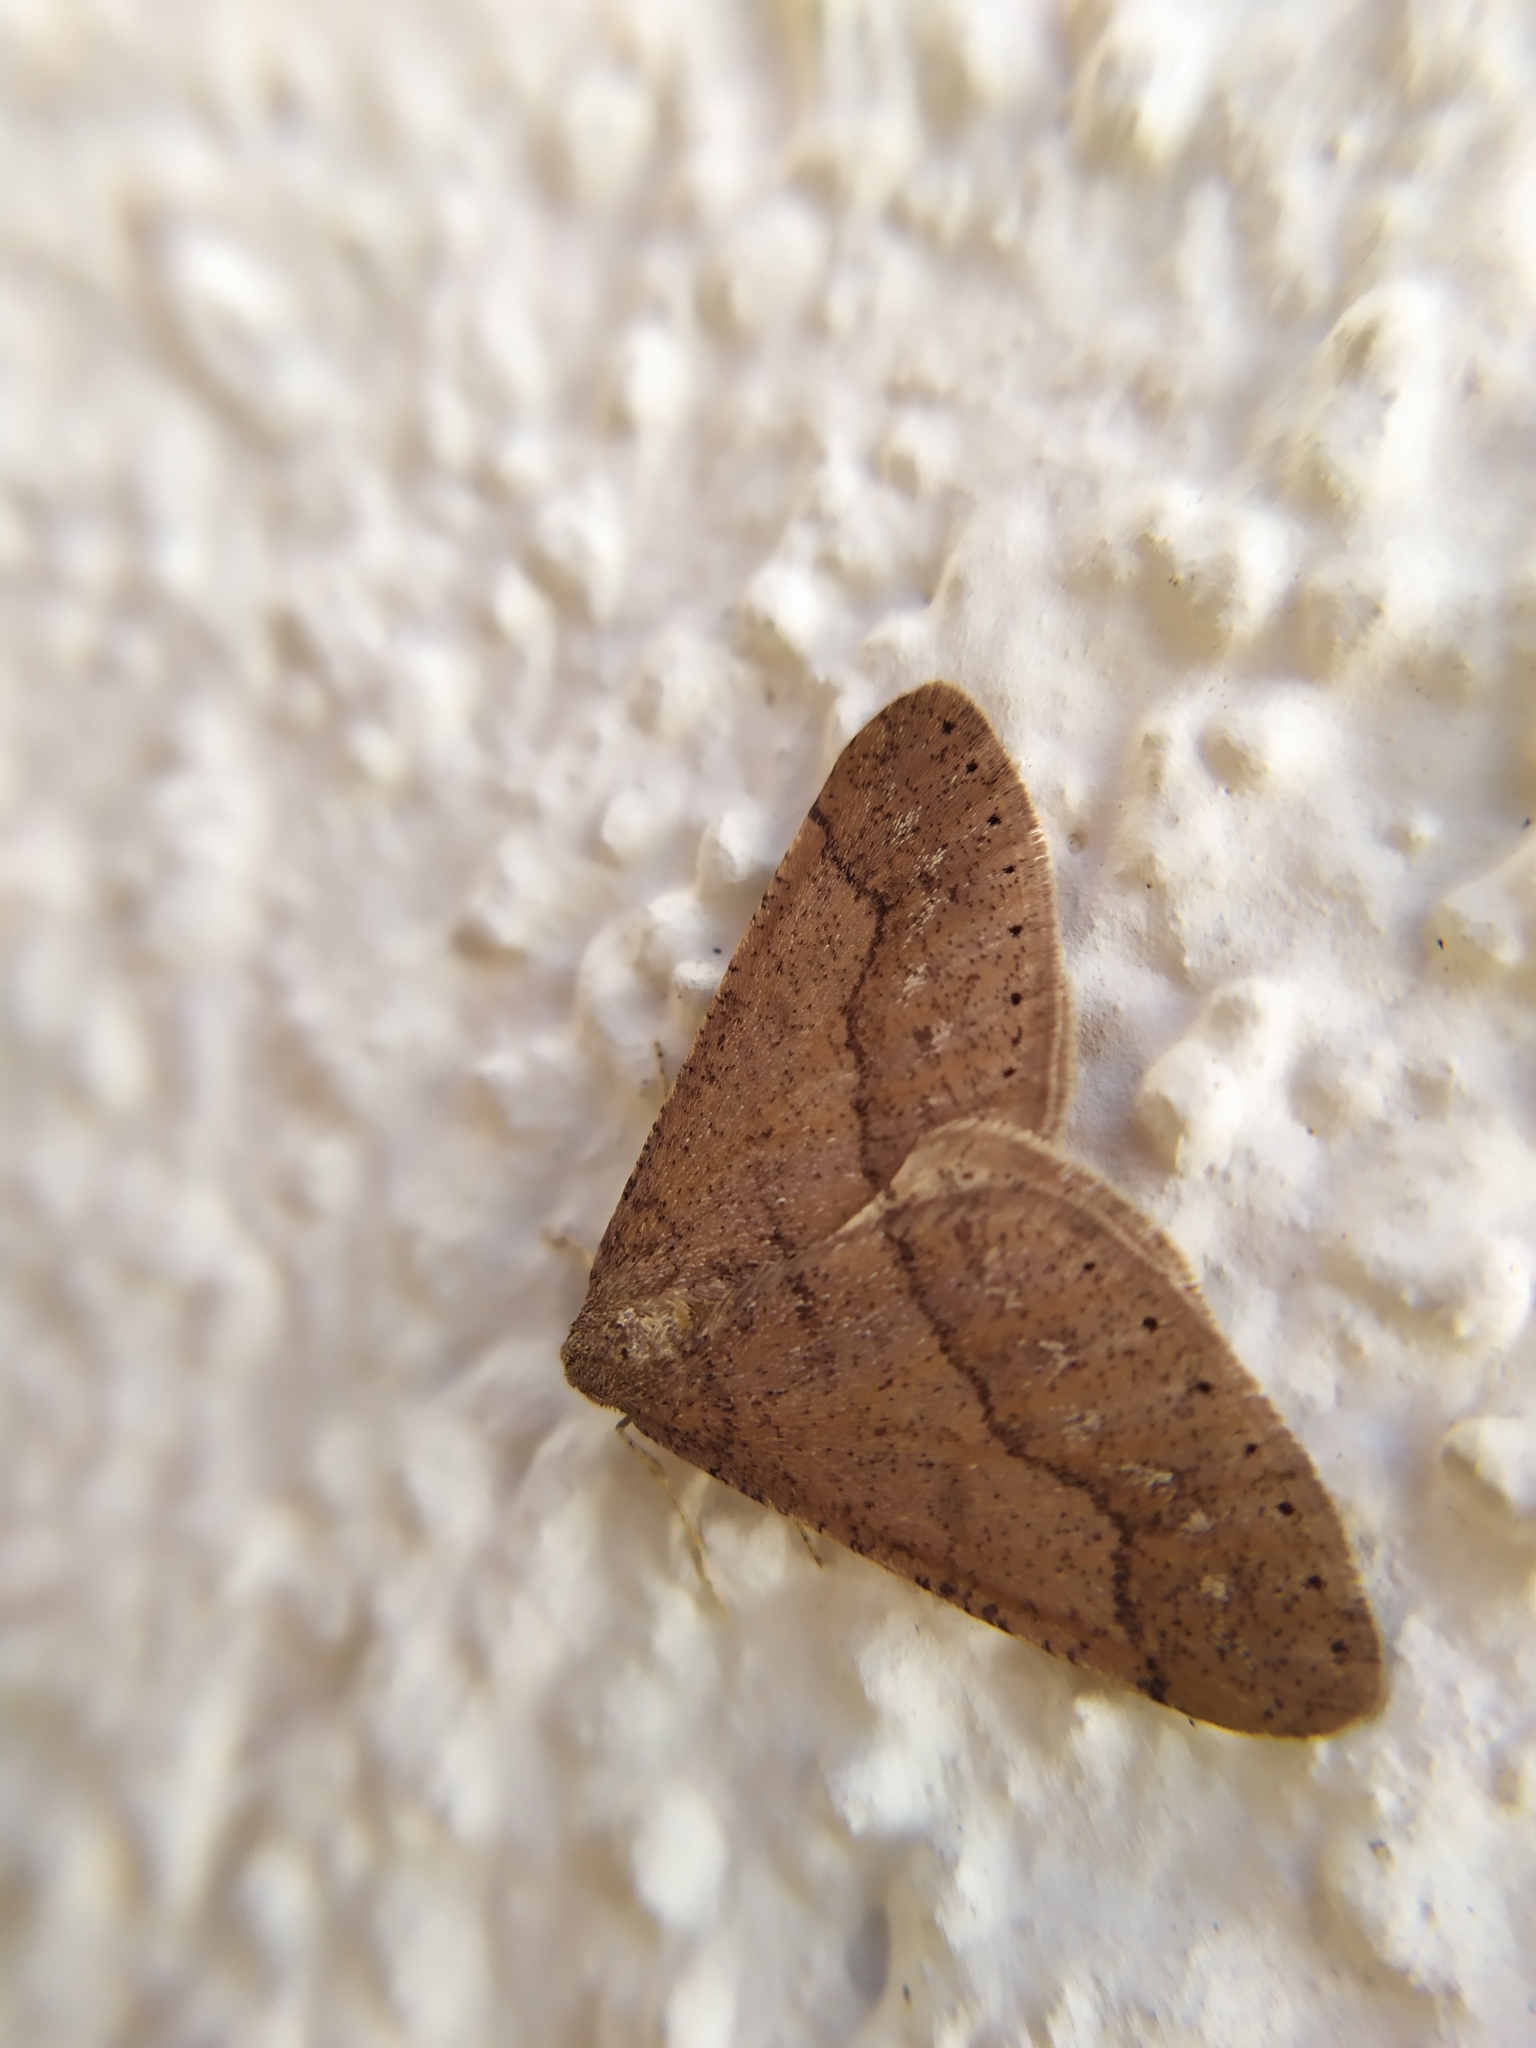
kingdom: Animalia
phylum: Arthropoda
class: Insecta
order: Lepidoptera
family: Geometridae
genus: Agriopis
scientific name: Agriopis marginaria
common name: Dotted border
